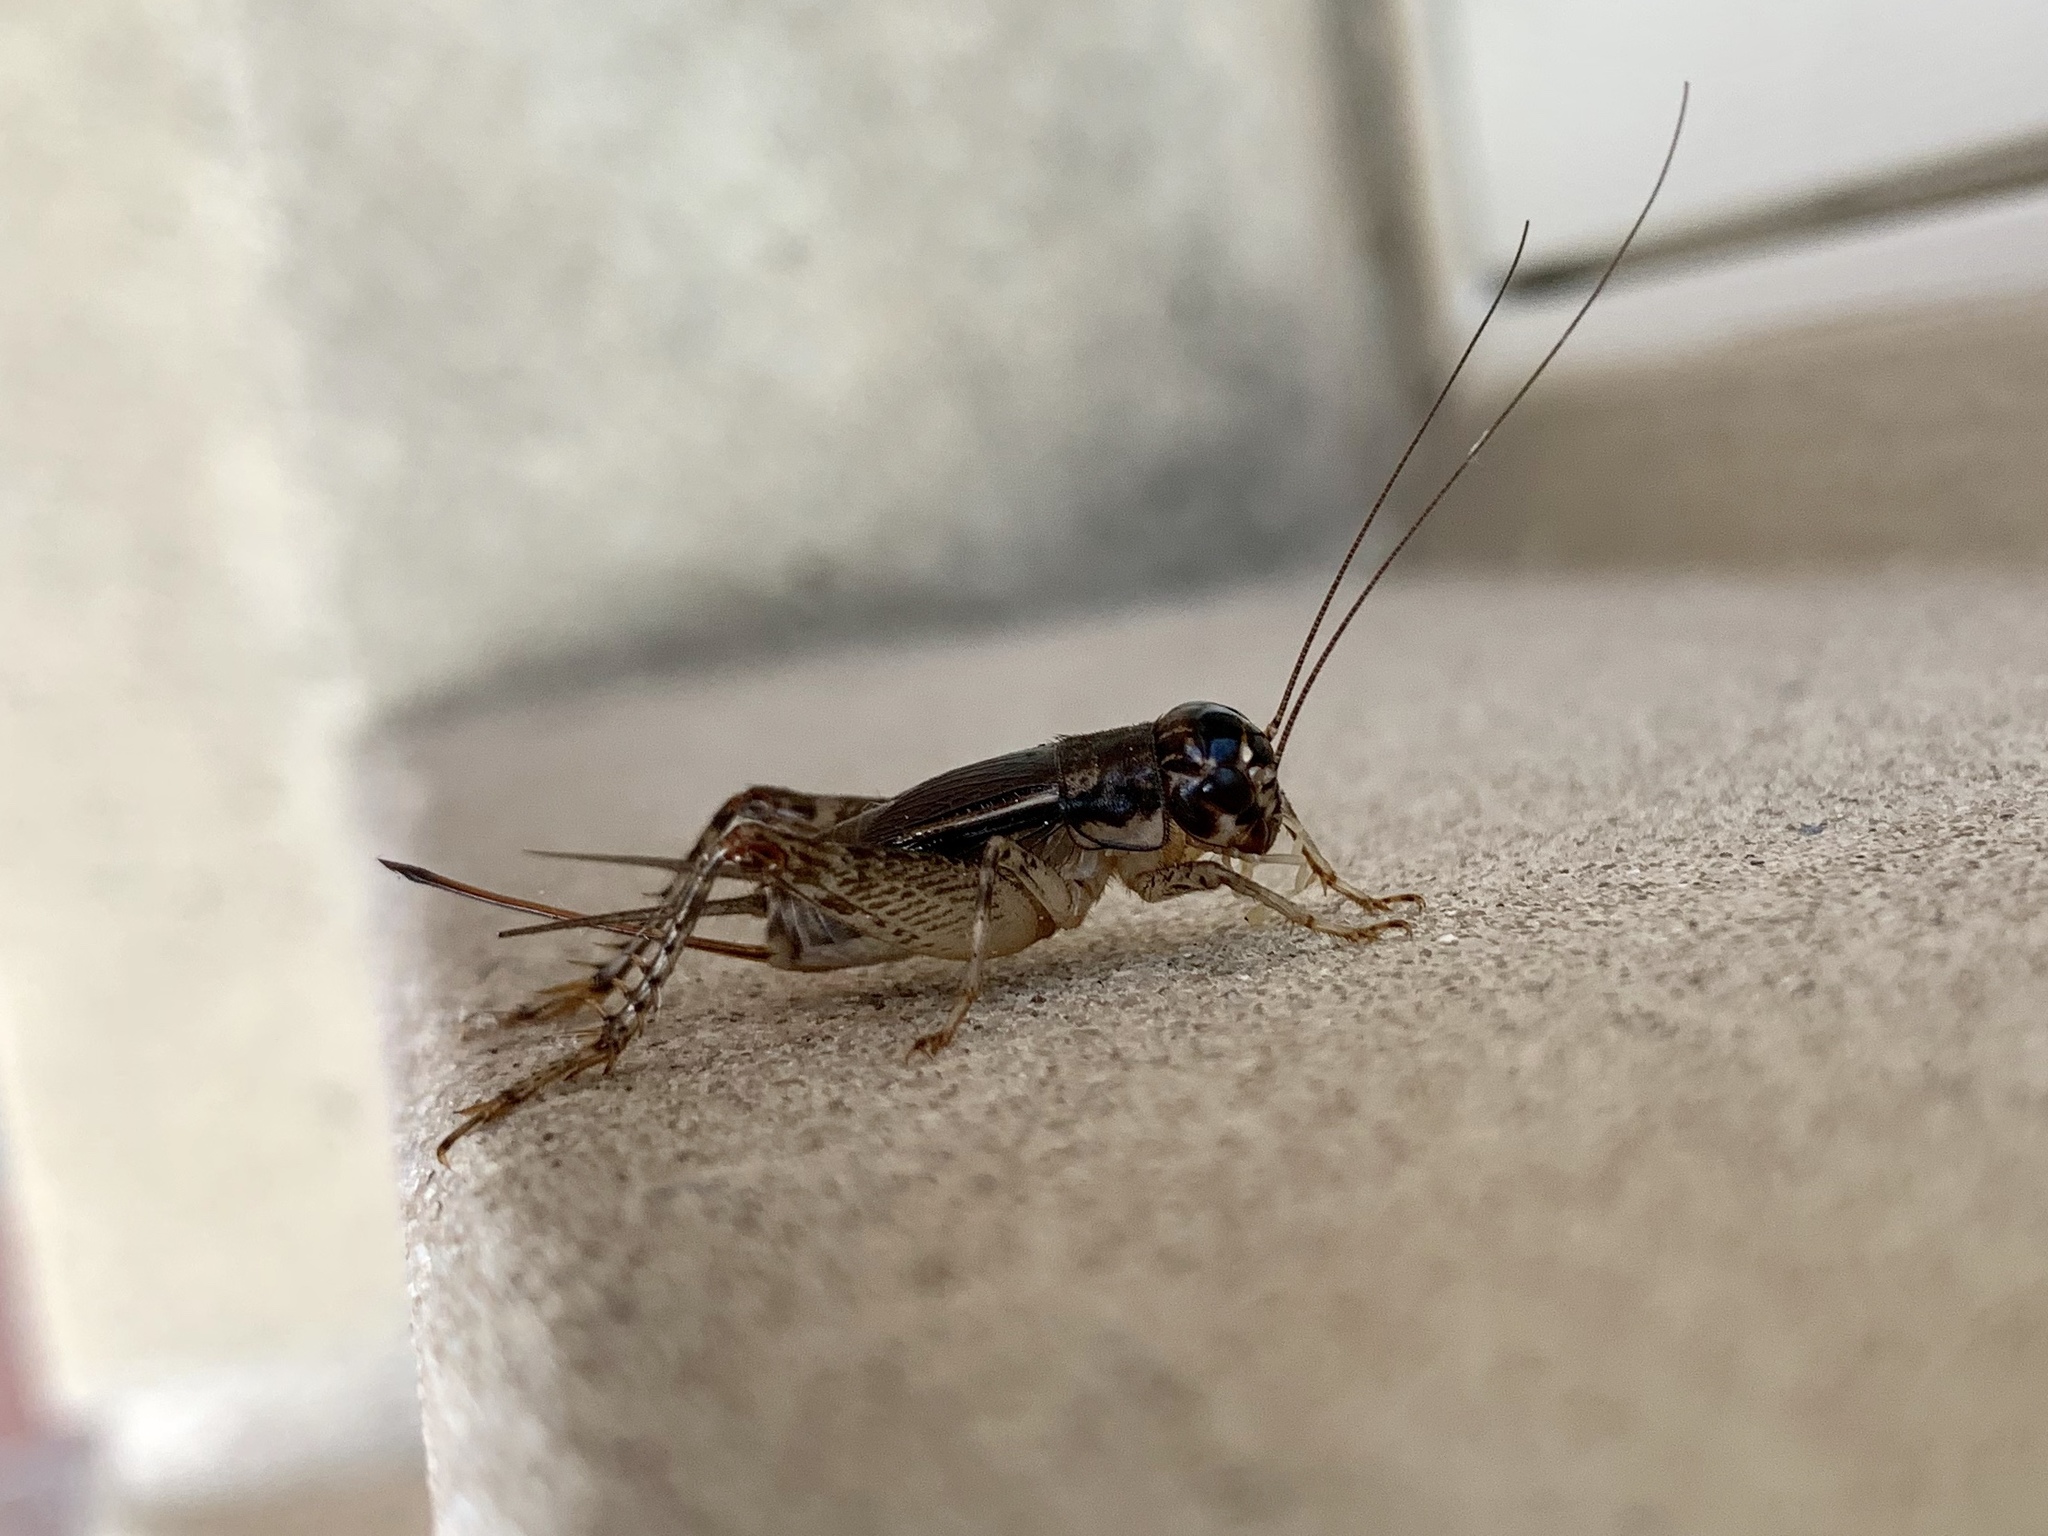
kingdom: Animalia
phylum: Arthropoda
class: Insecta
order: Orthoptera
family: Gryllidae
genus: Velarifictorus
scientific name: Velarifictorus micado
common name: Japanese burrowing cricket
